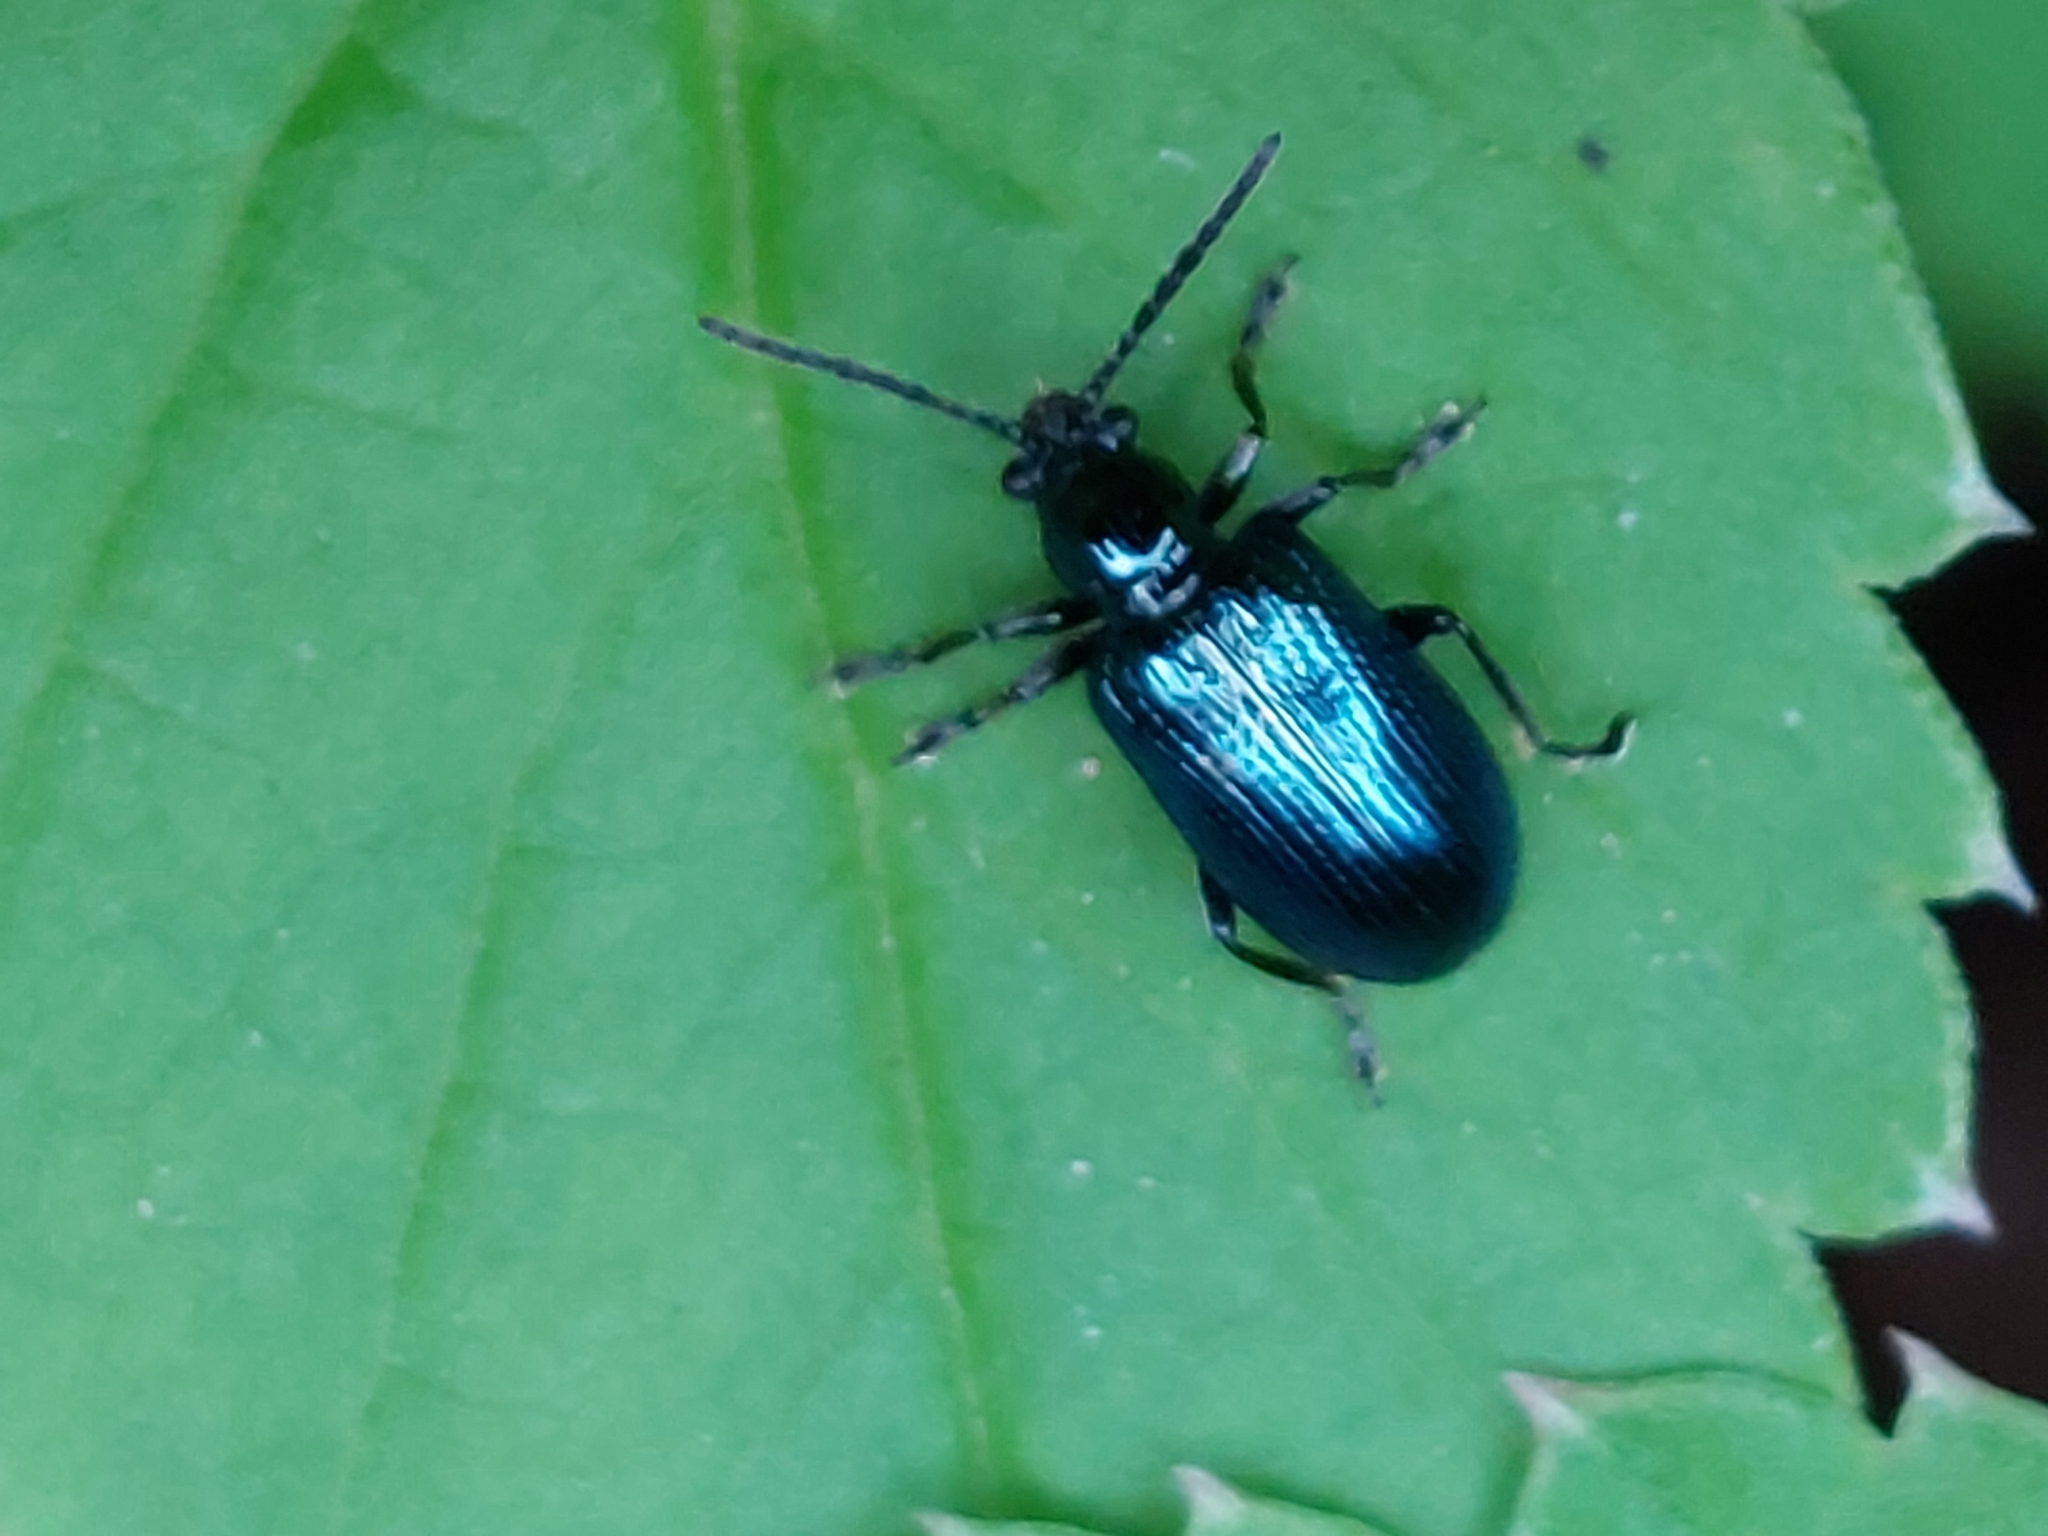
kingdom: Animalia
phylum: Arthropoda
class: Insecta
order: Coleoptera
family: Chrysomelidae
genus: Oulema
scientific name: Oulema gallaeciana
